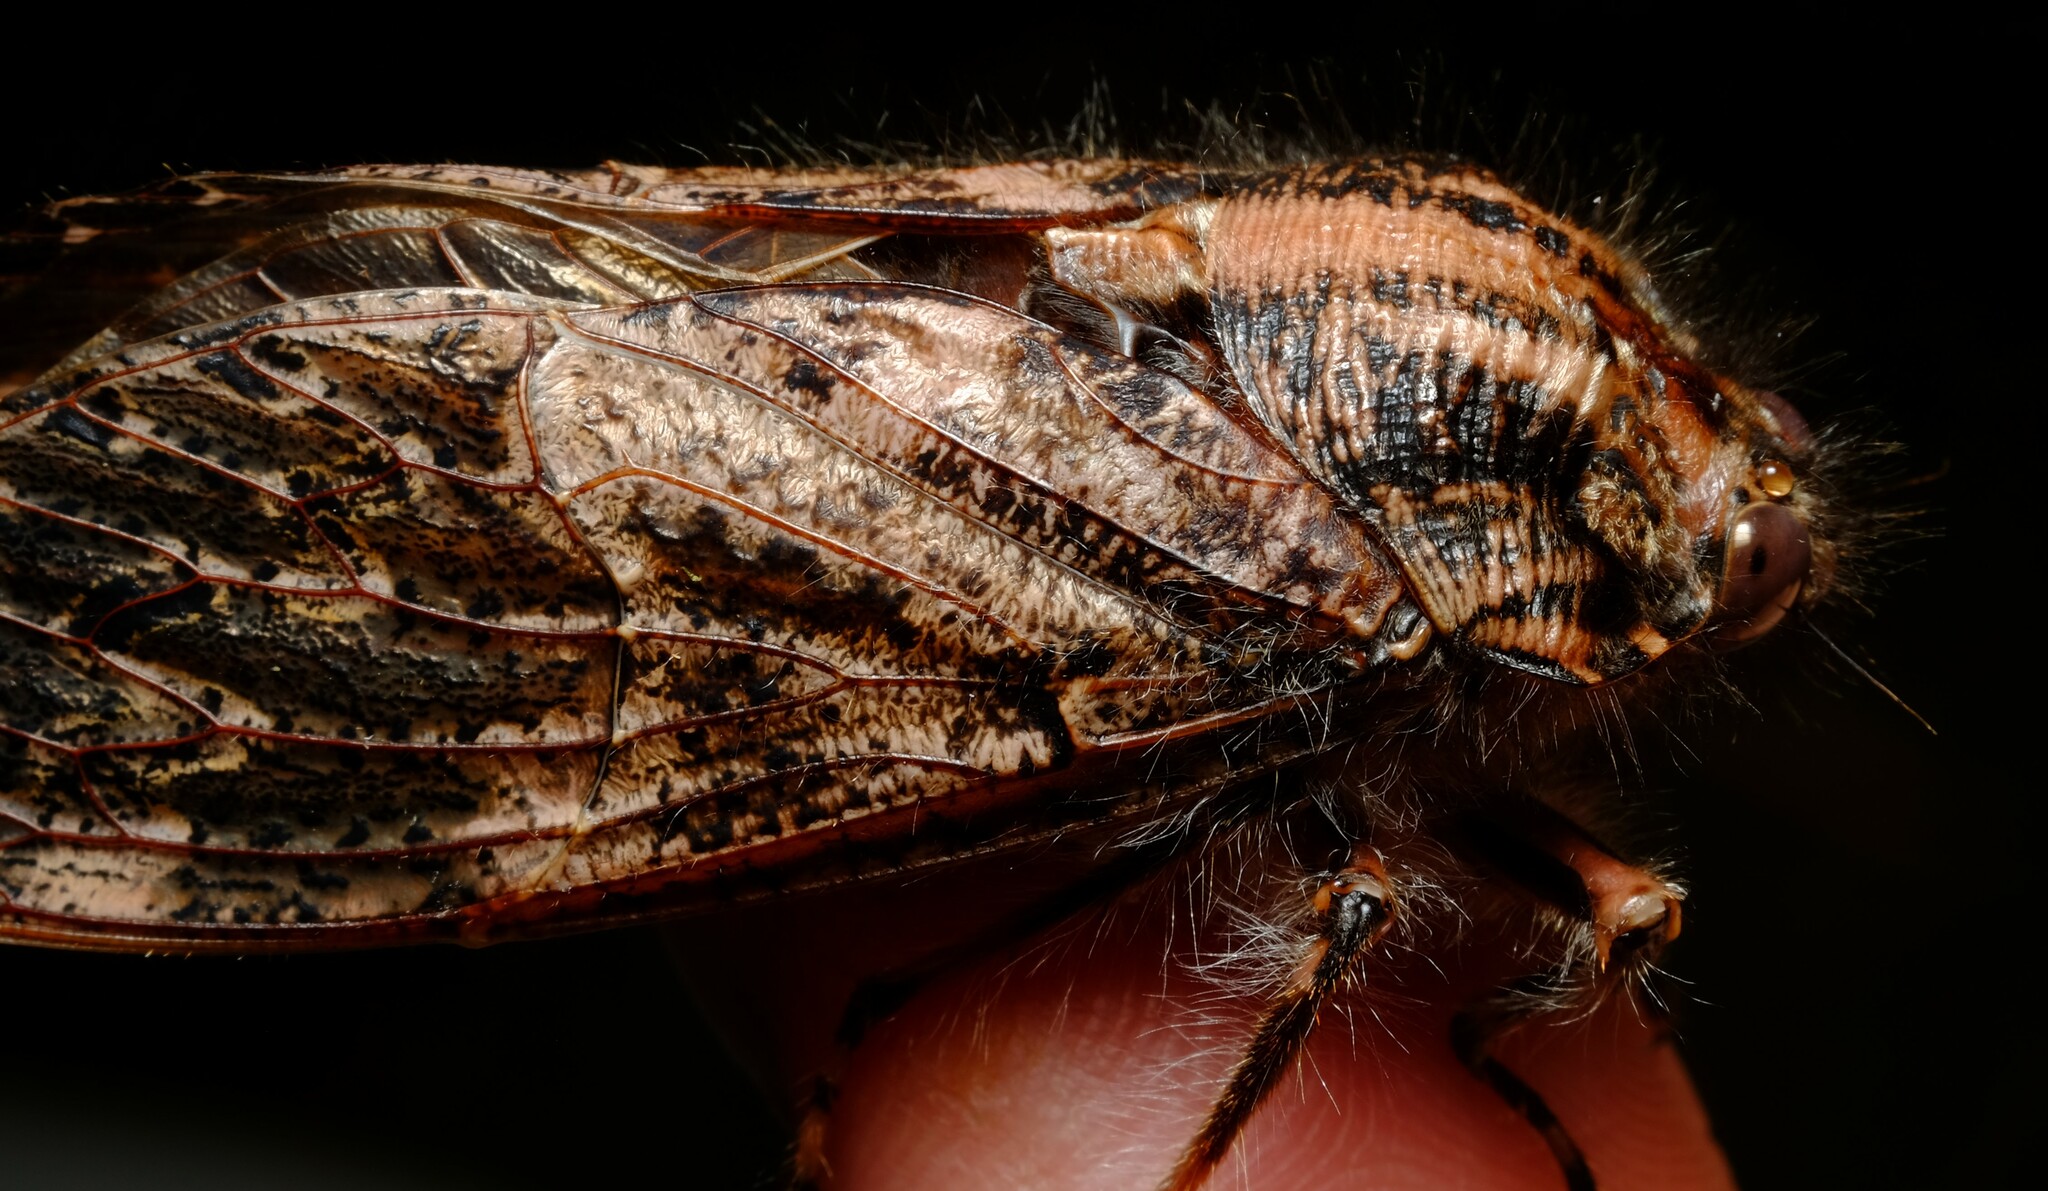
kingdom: Animalia
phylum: Arthropoda
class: Insecta
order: Hemiptera
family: Tettigarctidae
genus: Tettigarcta
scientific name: Tettigarcta crinita
